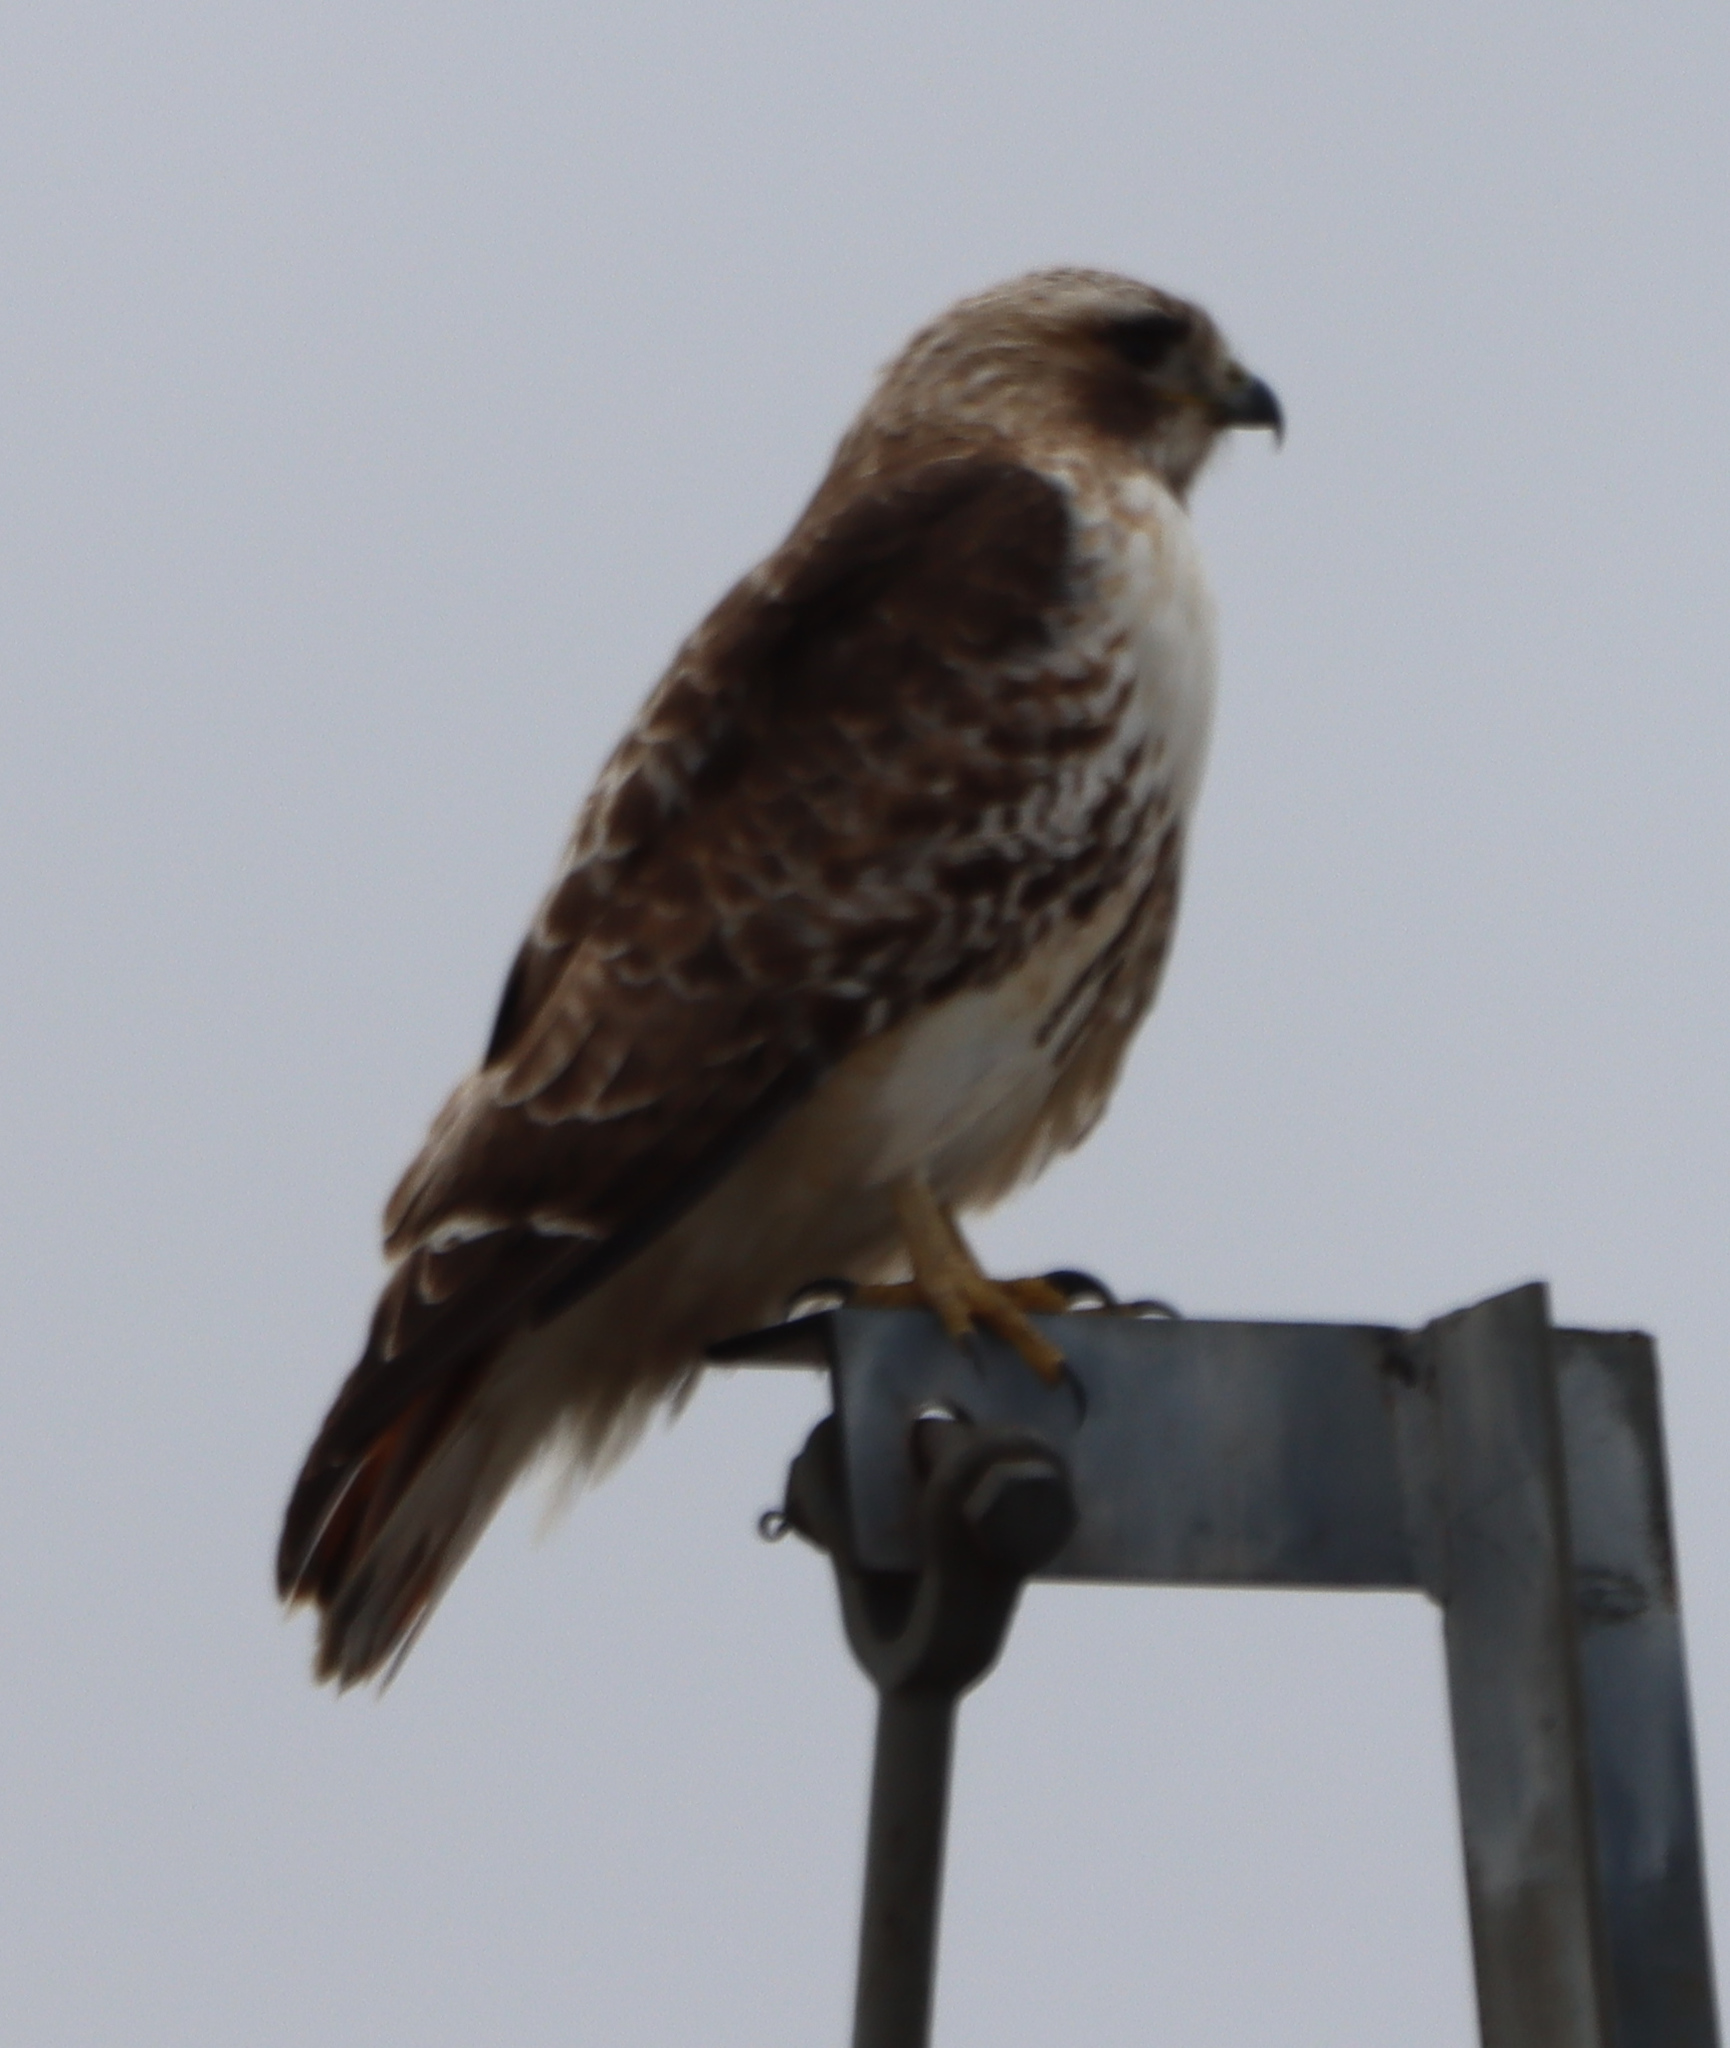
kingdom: Animalia
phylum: Chordata
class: Aves
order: Accipitriformes
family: Accipitridae
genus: Buteo
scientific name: Buteo jamaicensis
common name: Red-tailed hawk
